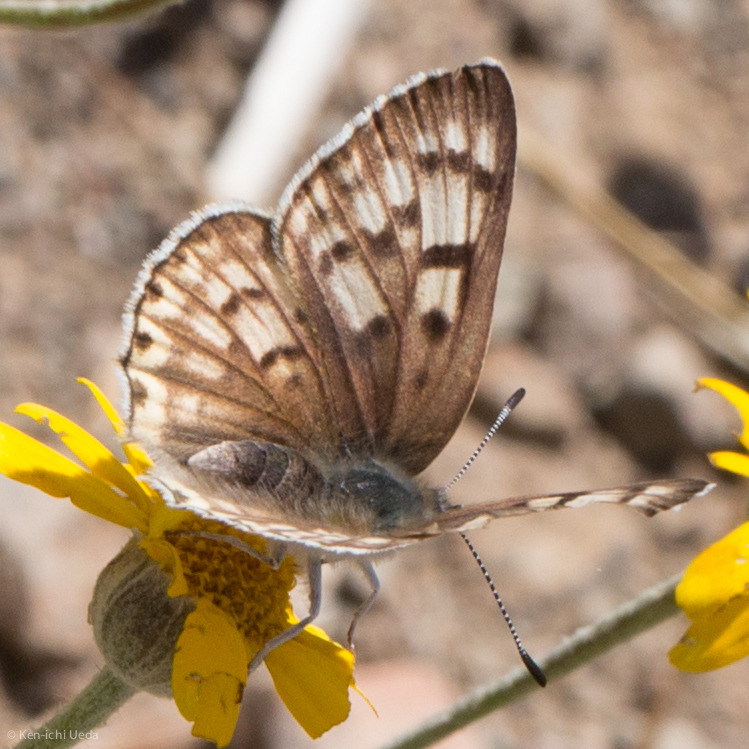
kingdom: Animalia
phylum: Arthropoda
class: Insecta
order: Lepidoptera
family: Lycaenidae
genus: Tharsalea
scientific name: Tharsalea gorgon
